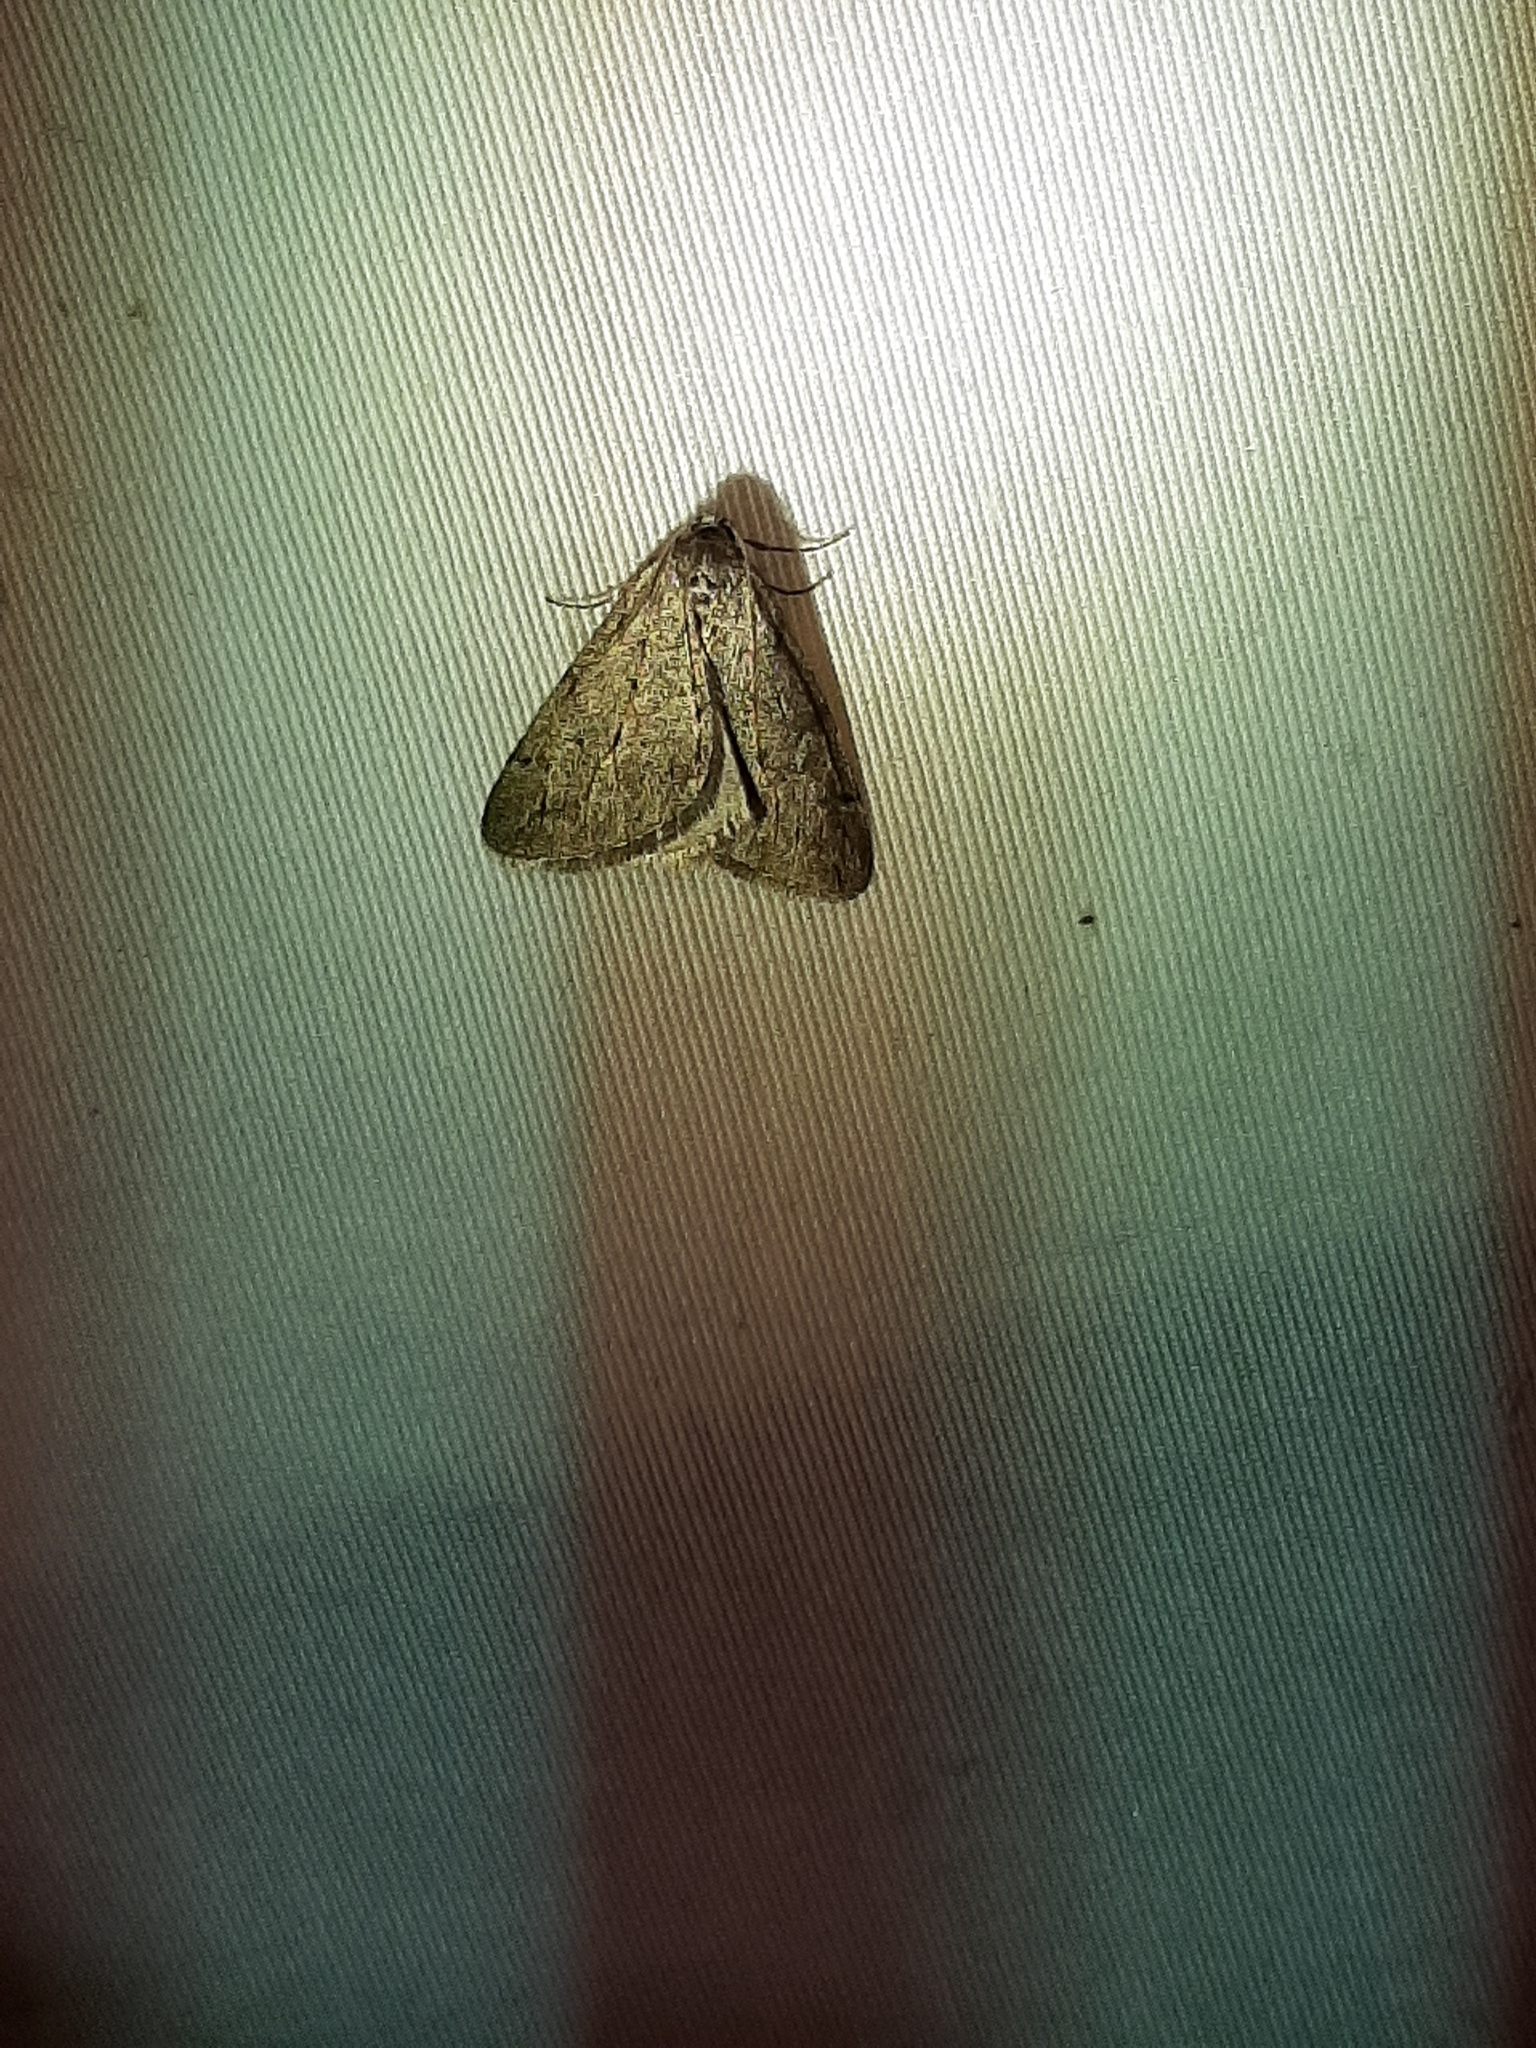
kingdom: Animalia
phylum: Arthropoda
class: Insecta
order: Lepidoptera
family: Geometridae
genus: Paleacrita
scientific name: Paleacrita vernata
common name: Spring cankerworm
